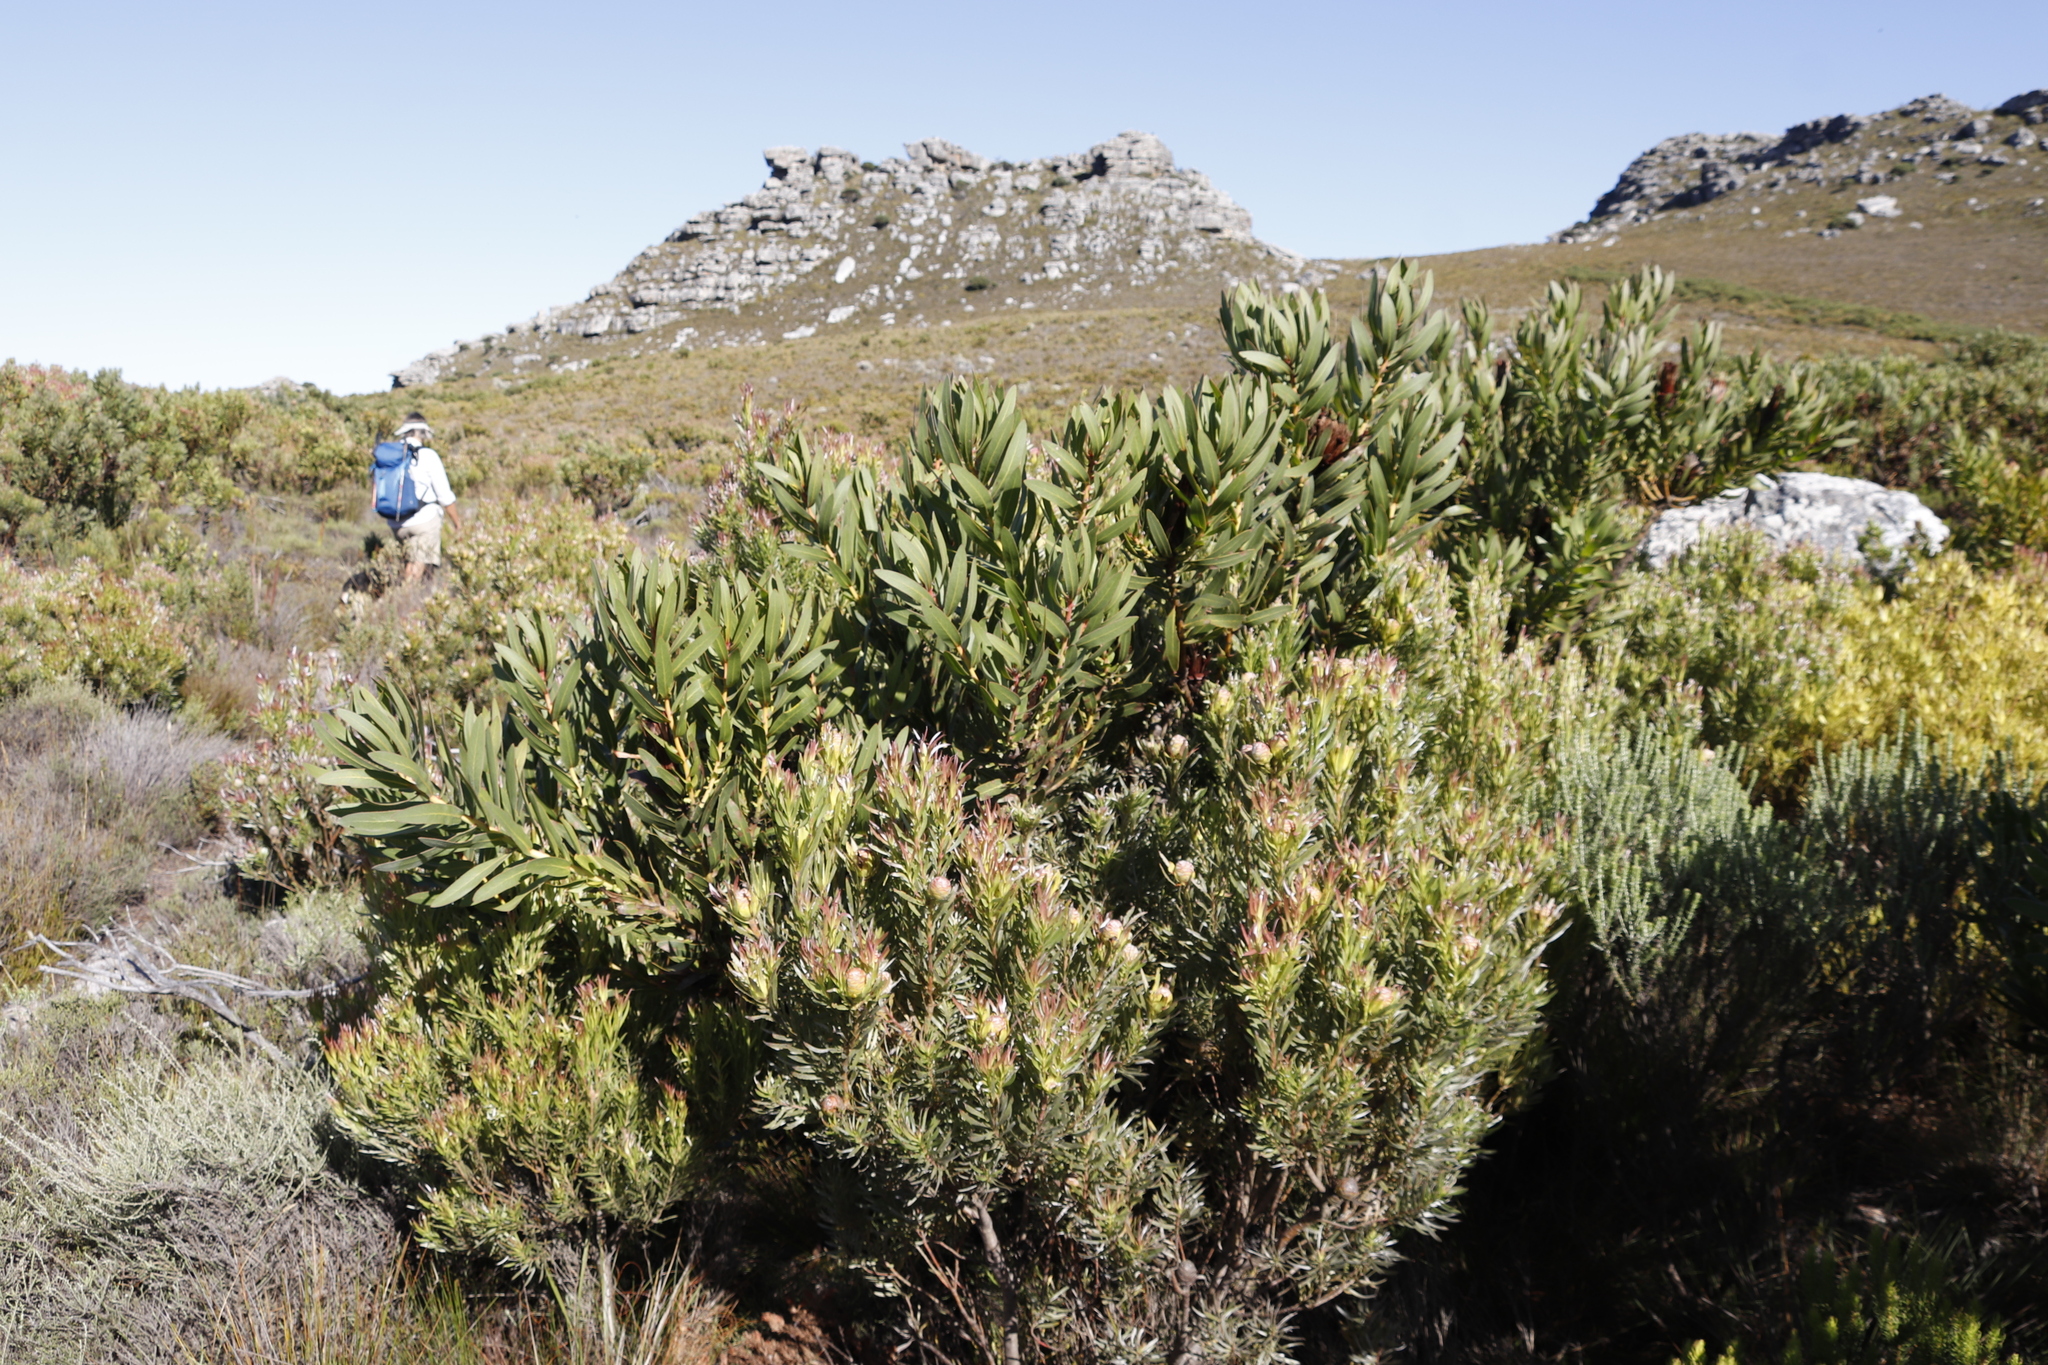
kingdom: Plantae
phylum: Tracheophyta
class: Magnoliopsida
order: Proteales
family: Proteaceae
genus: Protea
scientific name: Protea lepidocarpodendron
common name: Black-bearded protea
